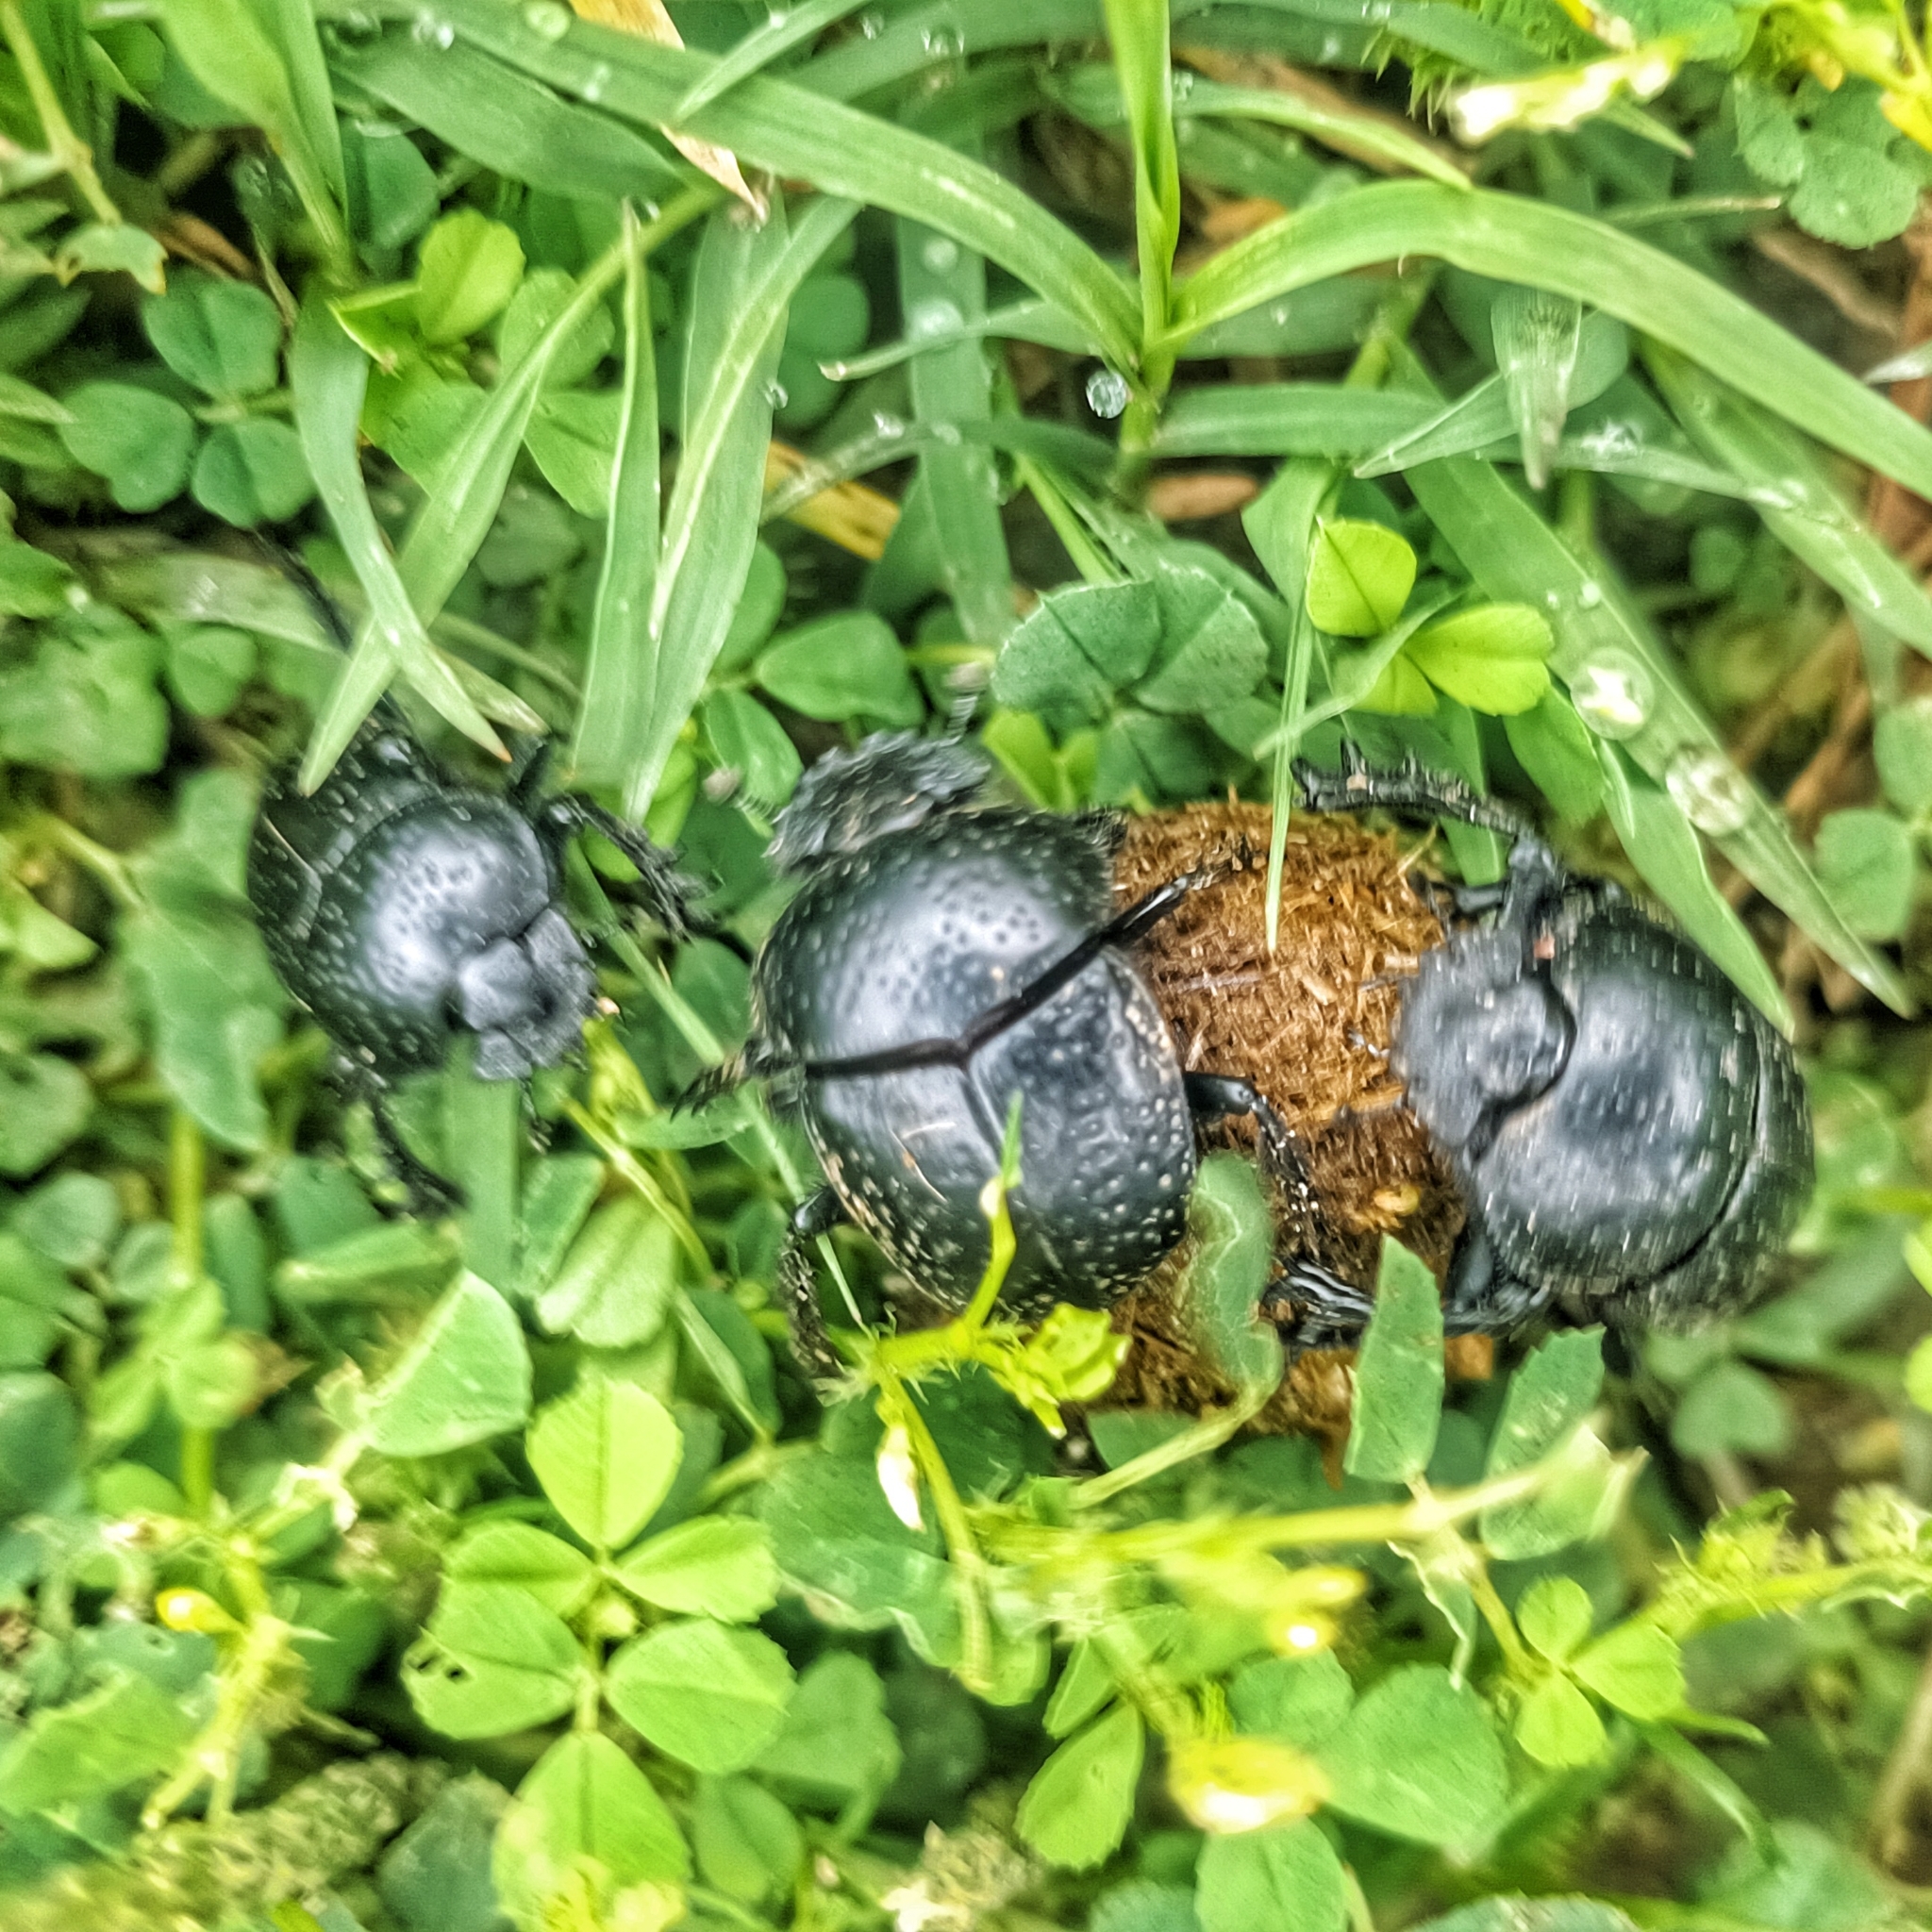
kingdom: Animalia
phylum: Arthropoda
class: Insecta
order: Coleoptera
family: Scarabaeidae
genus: Ateuchetus
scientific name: Ateuchetus
